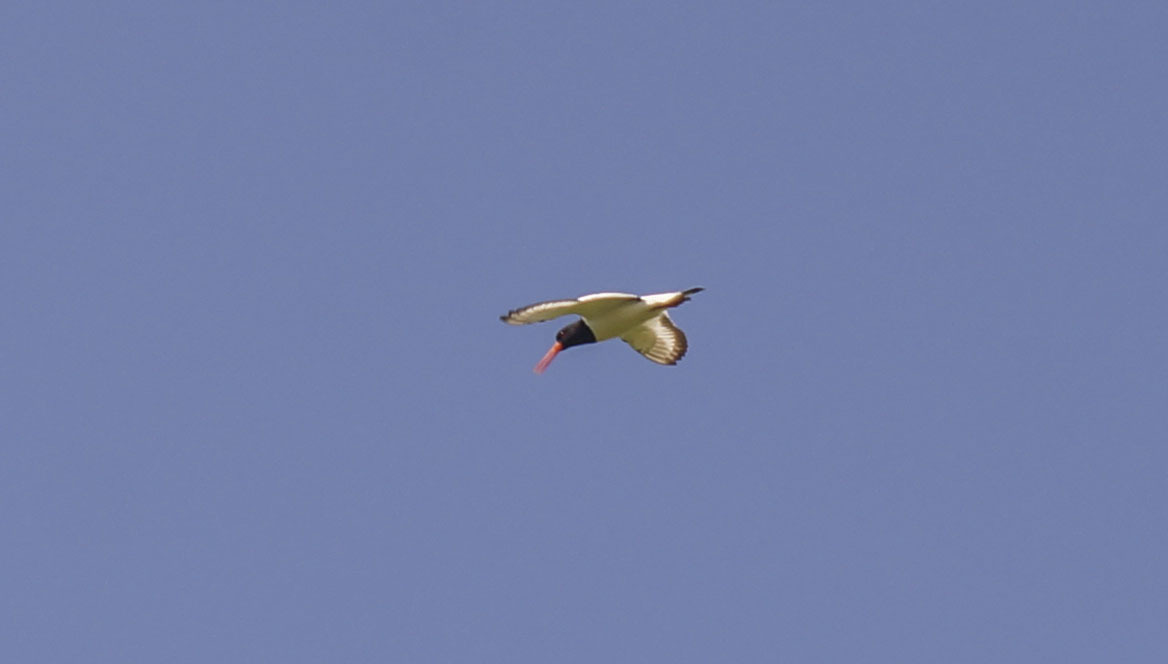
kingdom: Animalia
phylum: Chordata
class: Aves
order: Charadriiformes
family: Haematopodidae
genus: Haematopus
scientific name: Haematopus ostralegus
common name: Eurasian oystercatcher
